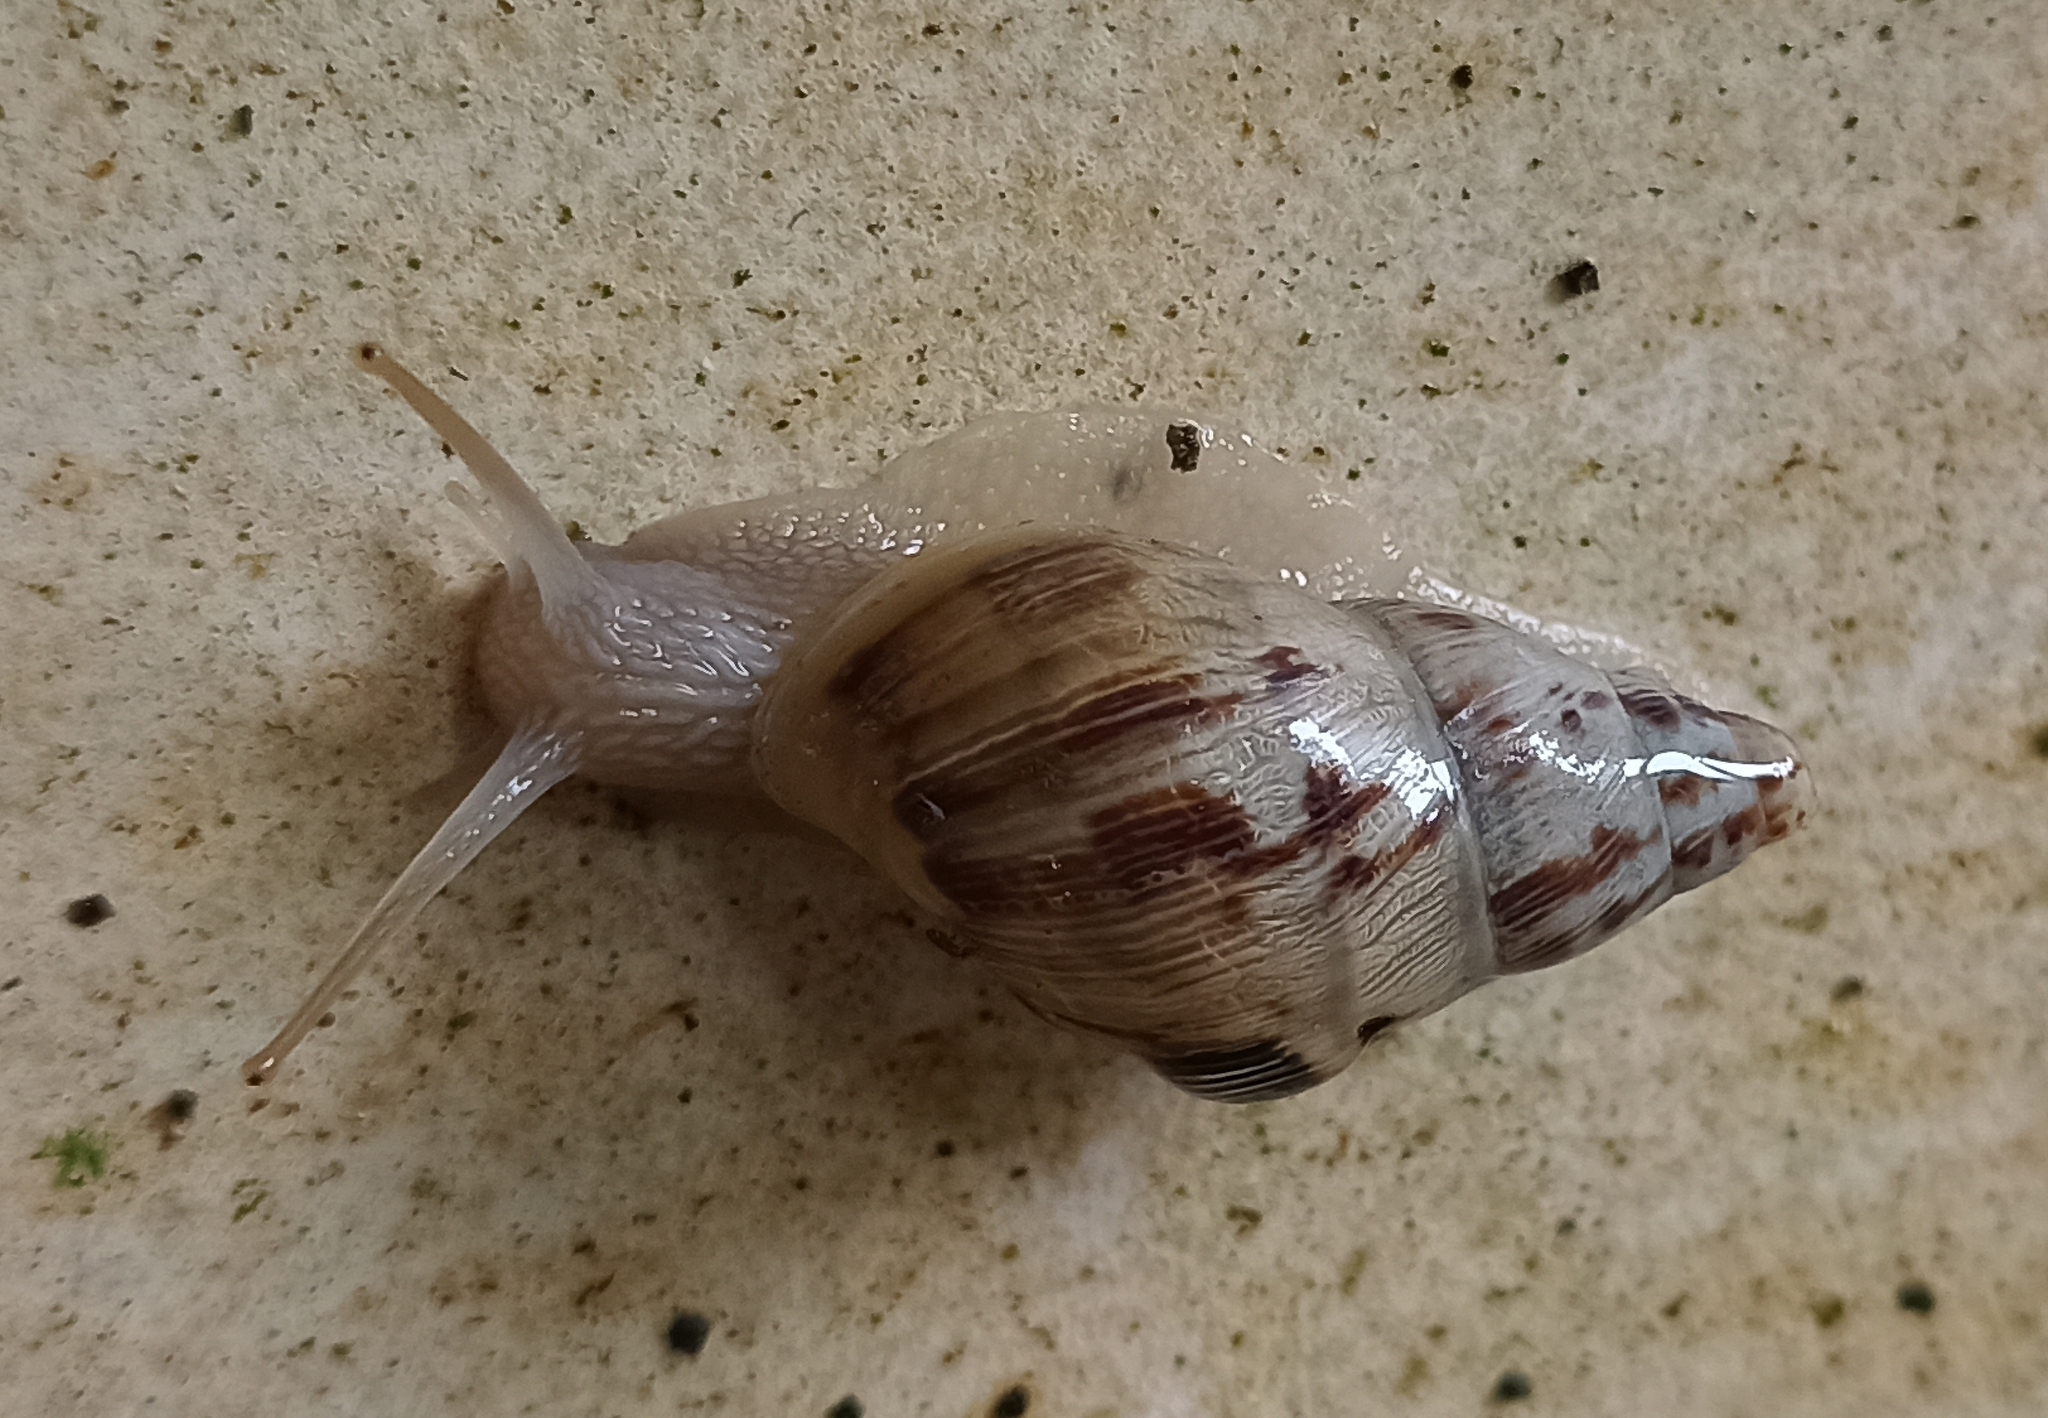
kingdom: Animalia
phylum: Mollusca
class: Gastropoda
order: Stylommatophora
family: Bulimulidae
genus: Drymaeus
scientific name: Drymaeus papyraceus
